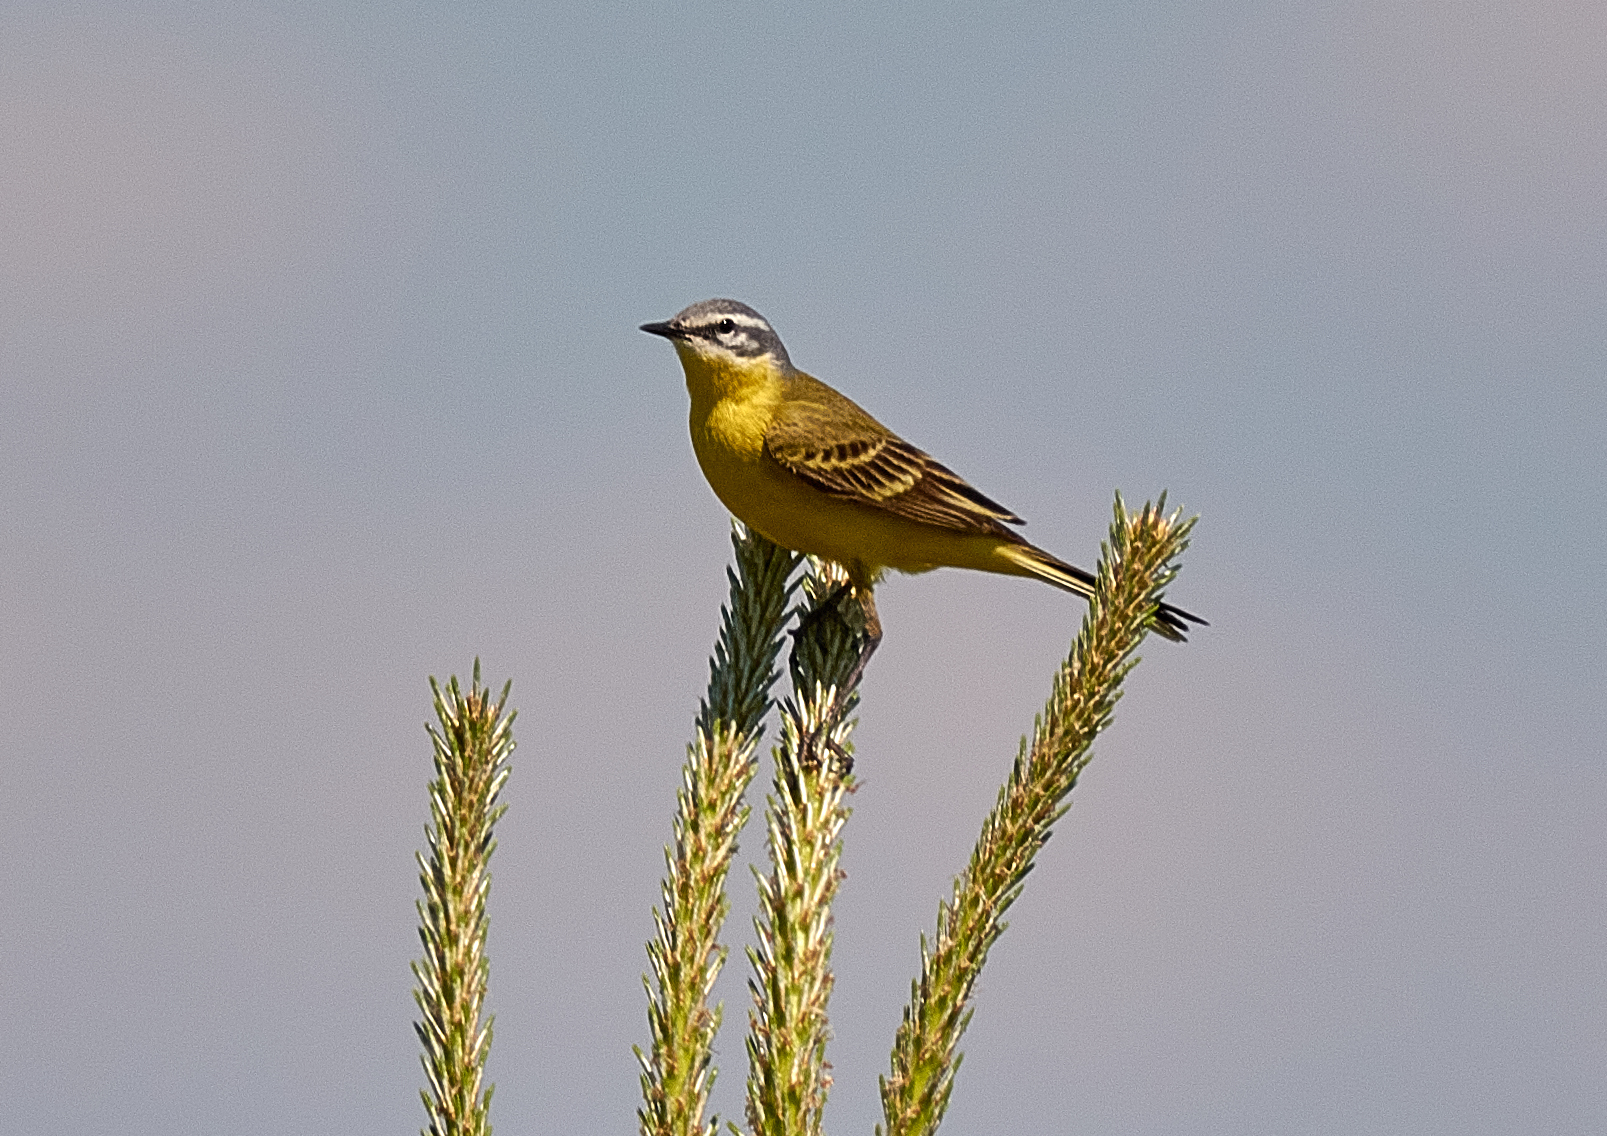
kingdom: Animalia
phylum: Chordata
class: Aves
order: Passeriformes
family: Motacillidae
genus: Motacilla
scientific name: Motacilla flava
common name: Western yellow wagtail
